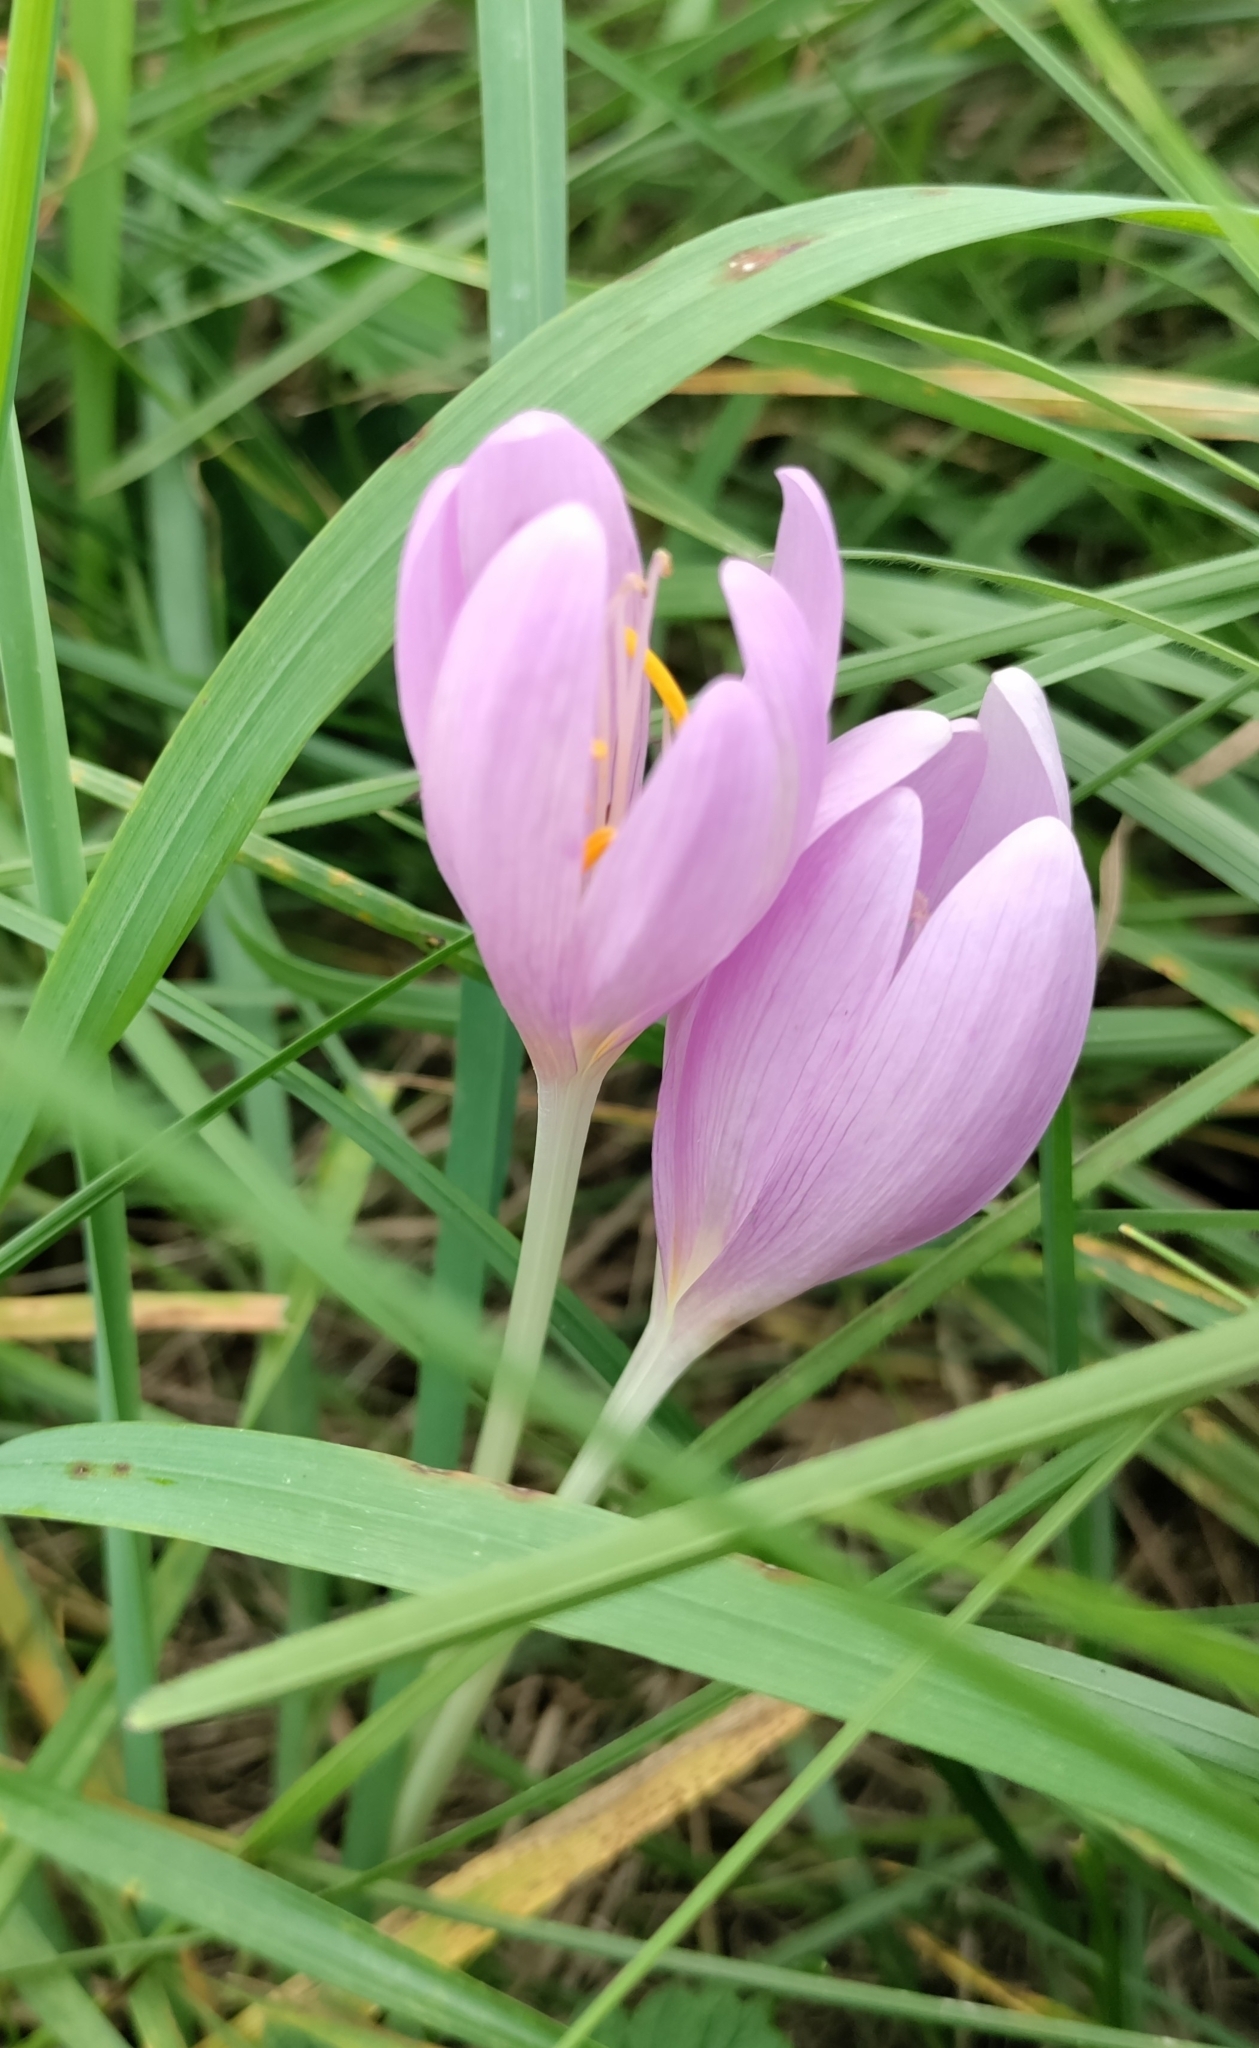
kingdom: Plantae
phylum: Tracheophyta
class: Liliopsida
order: Liliales
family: Colchicaceae
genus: Colchicum
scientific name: Colchicum autumnale
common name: Autumn crocus
